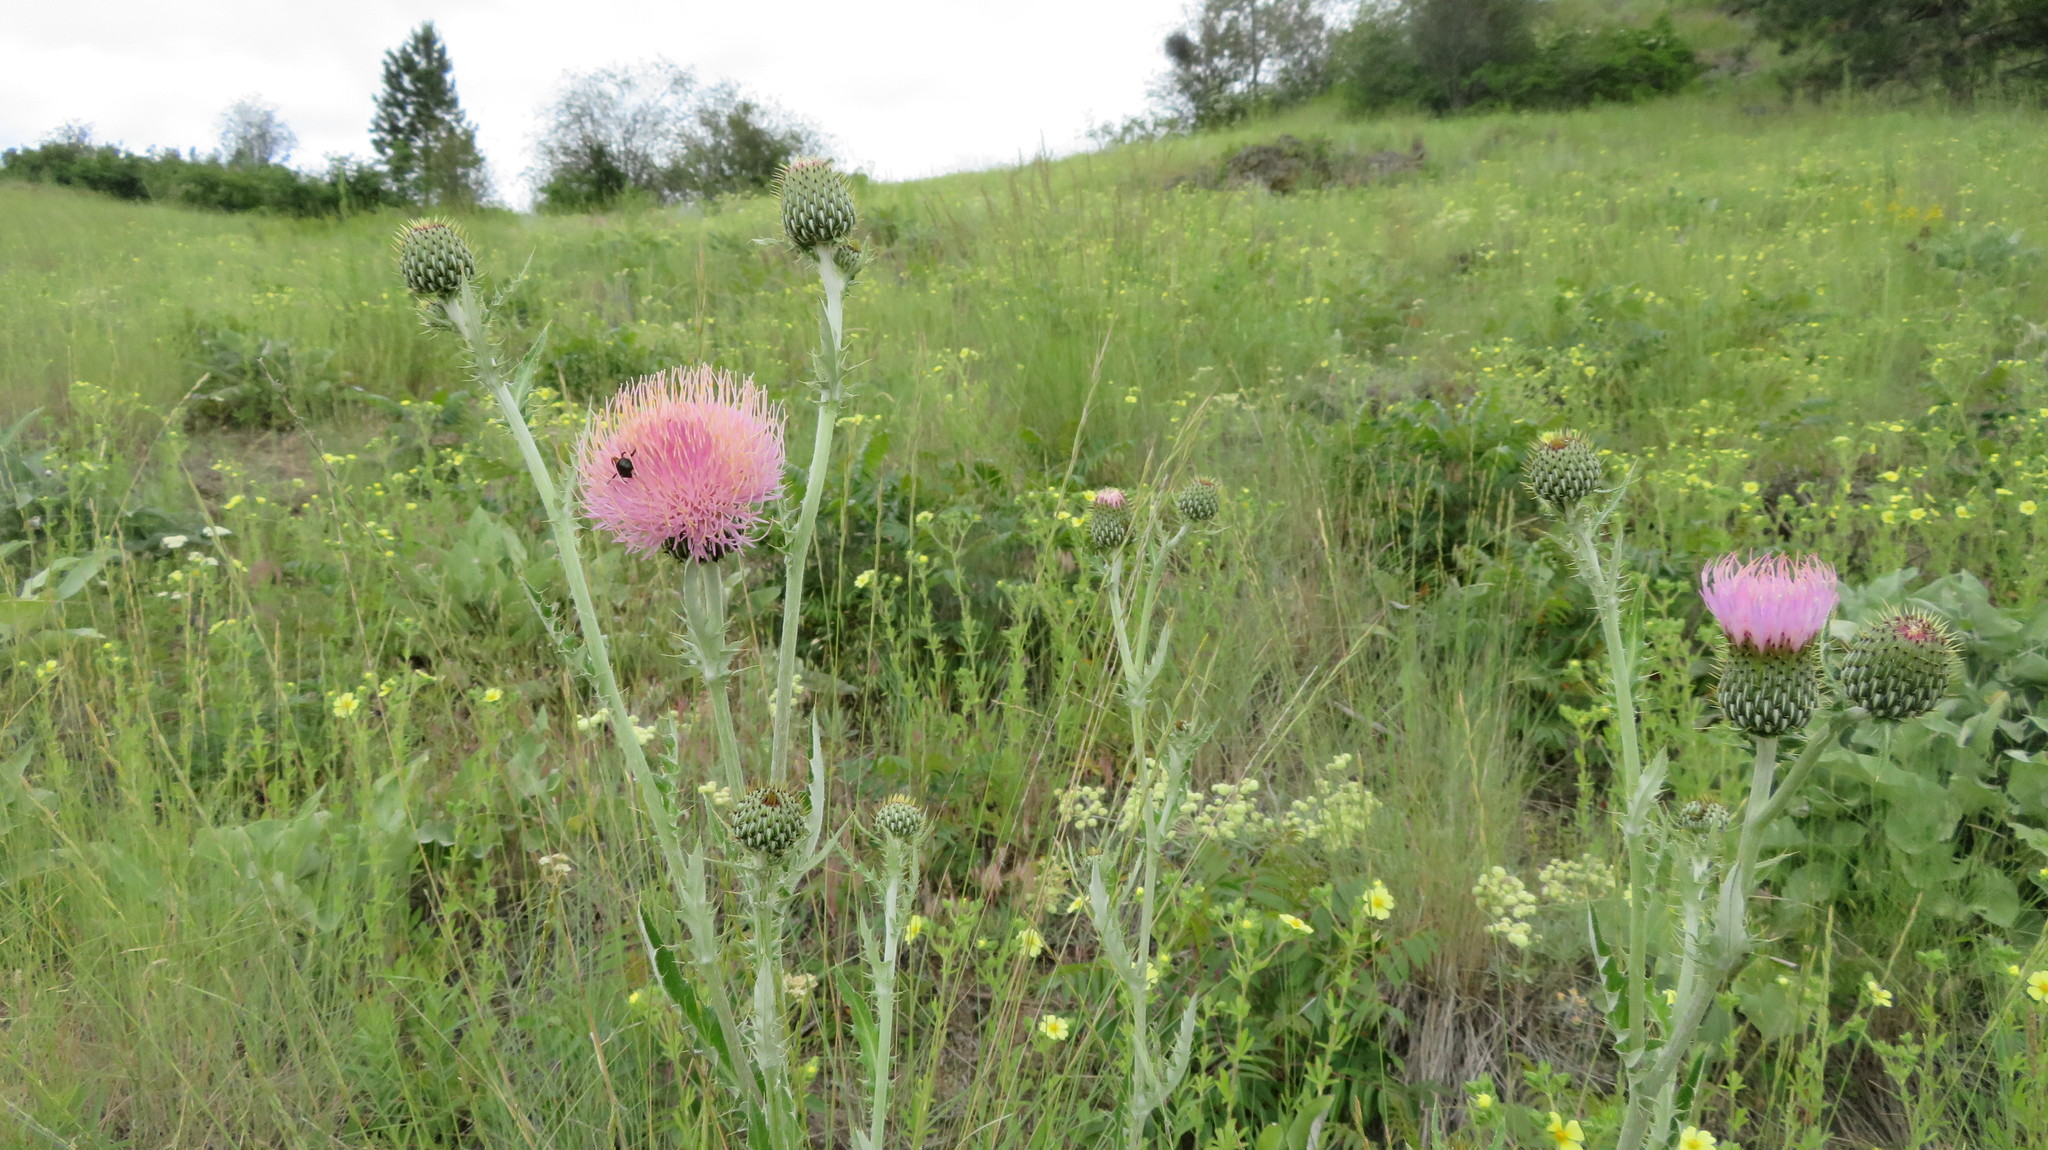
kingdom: Plantae
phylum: Tracheophyta
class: Magnoliopsida
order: Asterales
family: Asteraceae
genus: Cirsium
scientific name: Cirsium undulatum
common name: Pasture thistle
